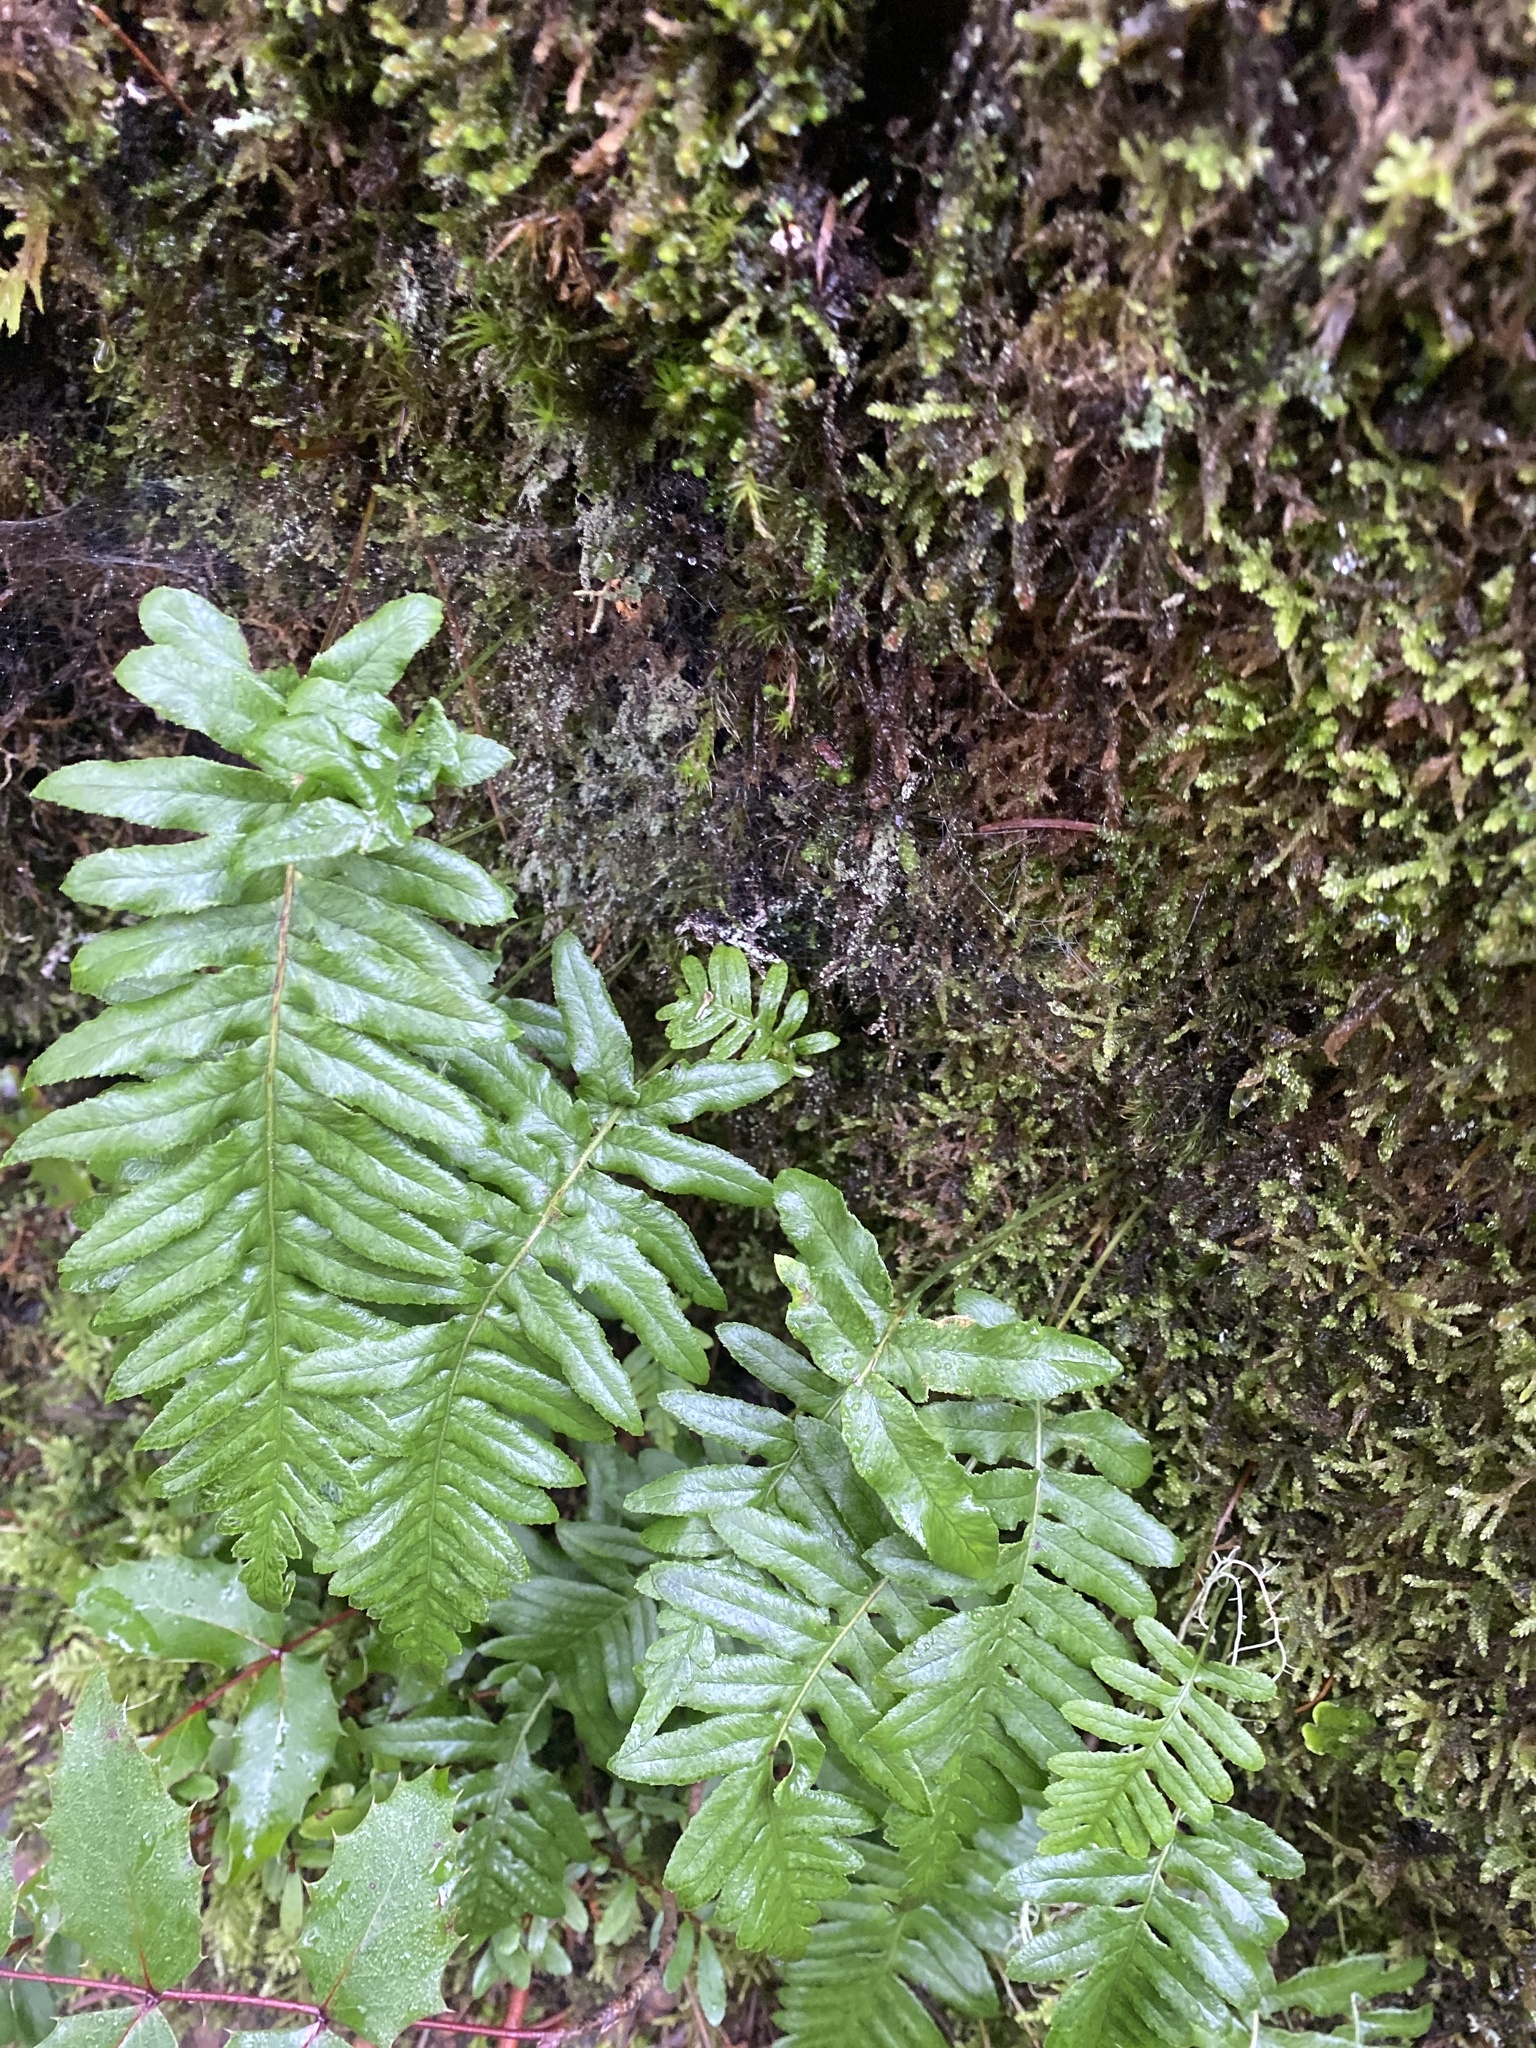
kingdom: Plantae
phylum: Tracheophyta
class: Polypodiopsida
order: Polypodiales
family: Polypodiaceae
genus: Polypodium
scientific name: Polypodium glycyrrhiza
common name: Licorice fern
